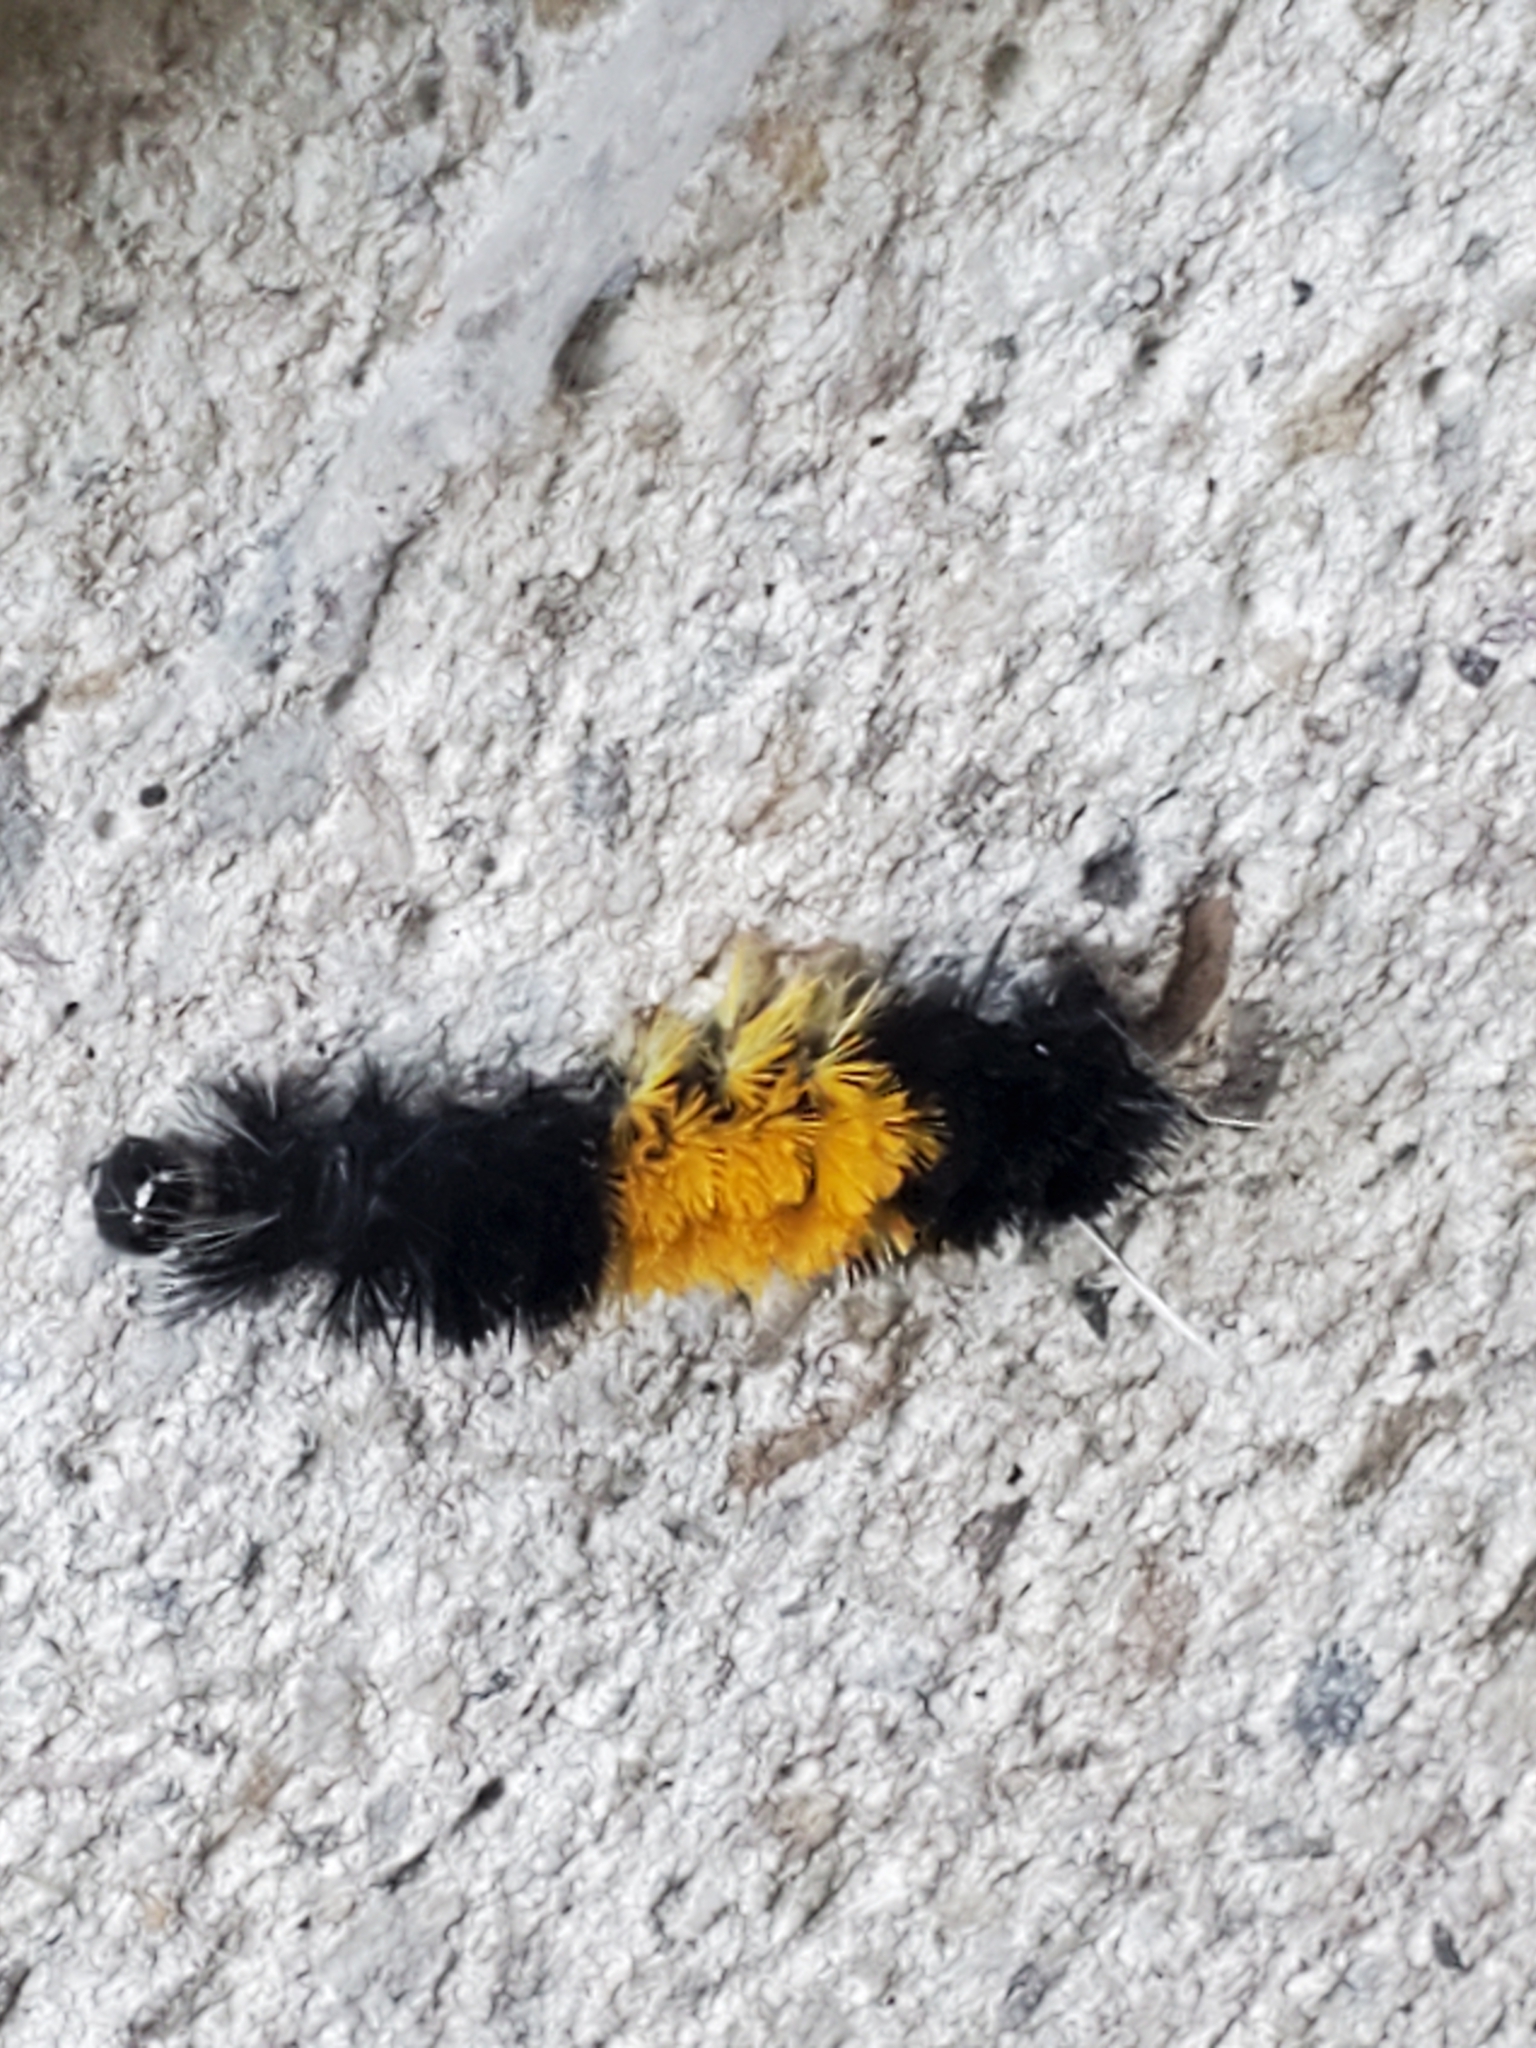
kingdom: Animalia
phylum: Arthropoda
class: Insecta
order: Lepidoptera
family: Erebidae
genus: Lophocampa
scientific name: Lophocampa maculata
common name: Spotted tussock moth
